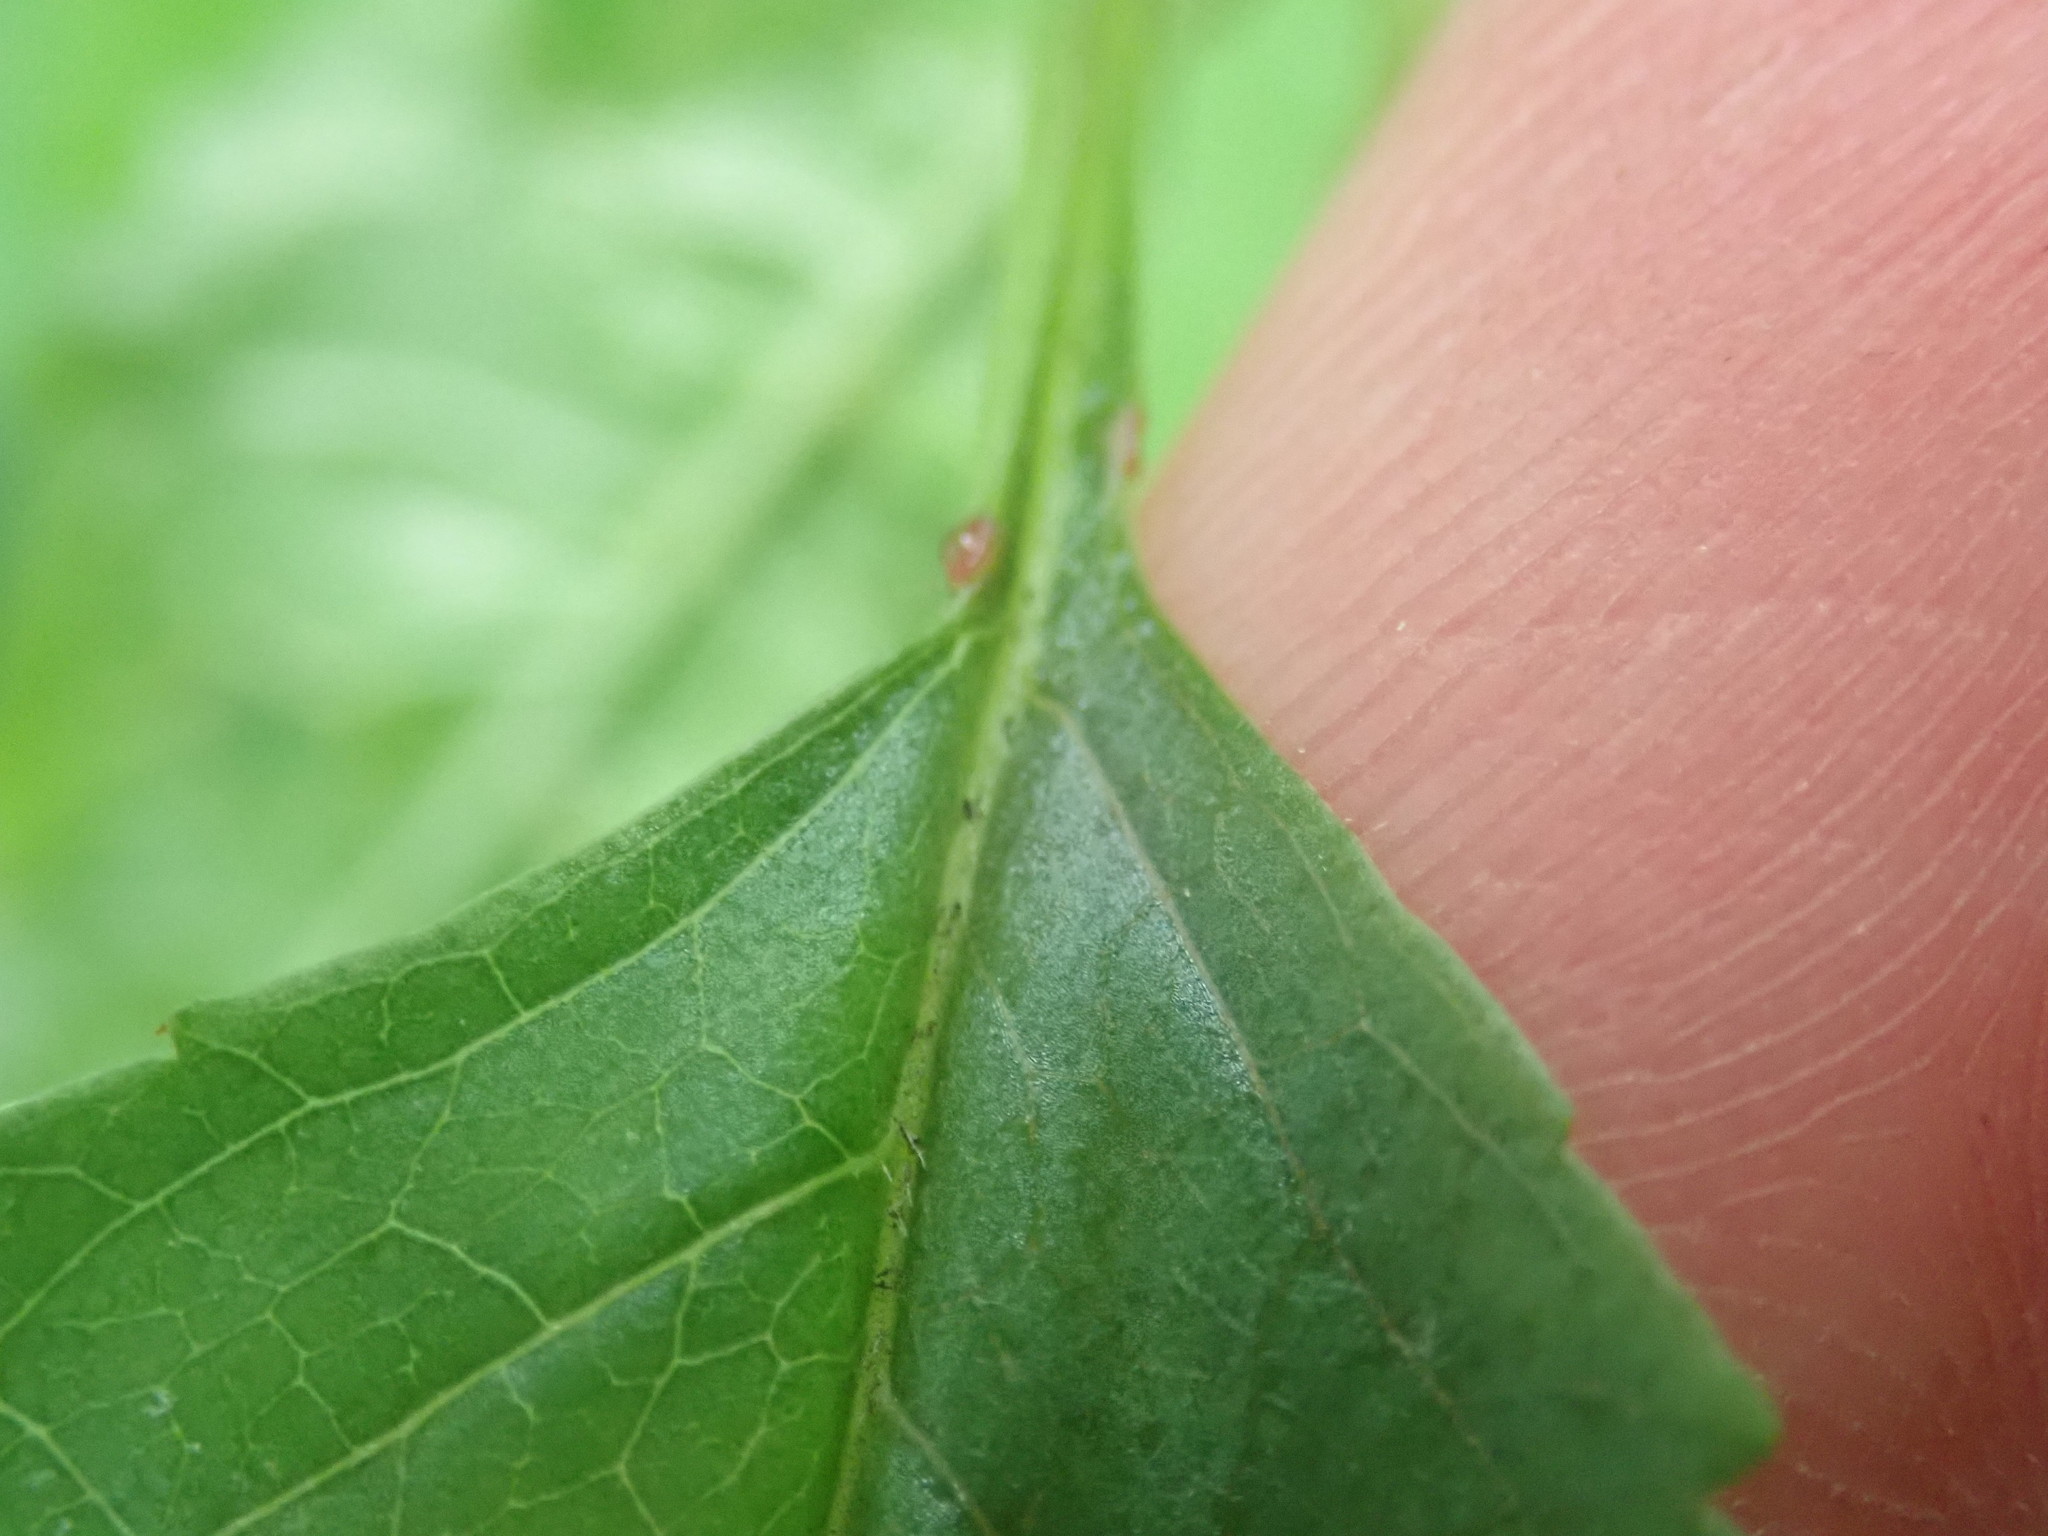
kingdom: Plantae
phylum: Tracheophyta
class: Magnoliopsida
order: Rosales
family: Rosaceae
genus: Prunus
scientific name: Prunus avium
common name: Sweet cherry
